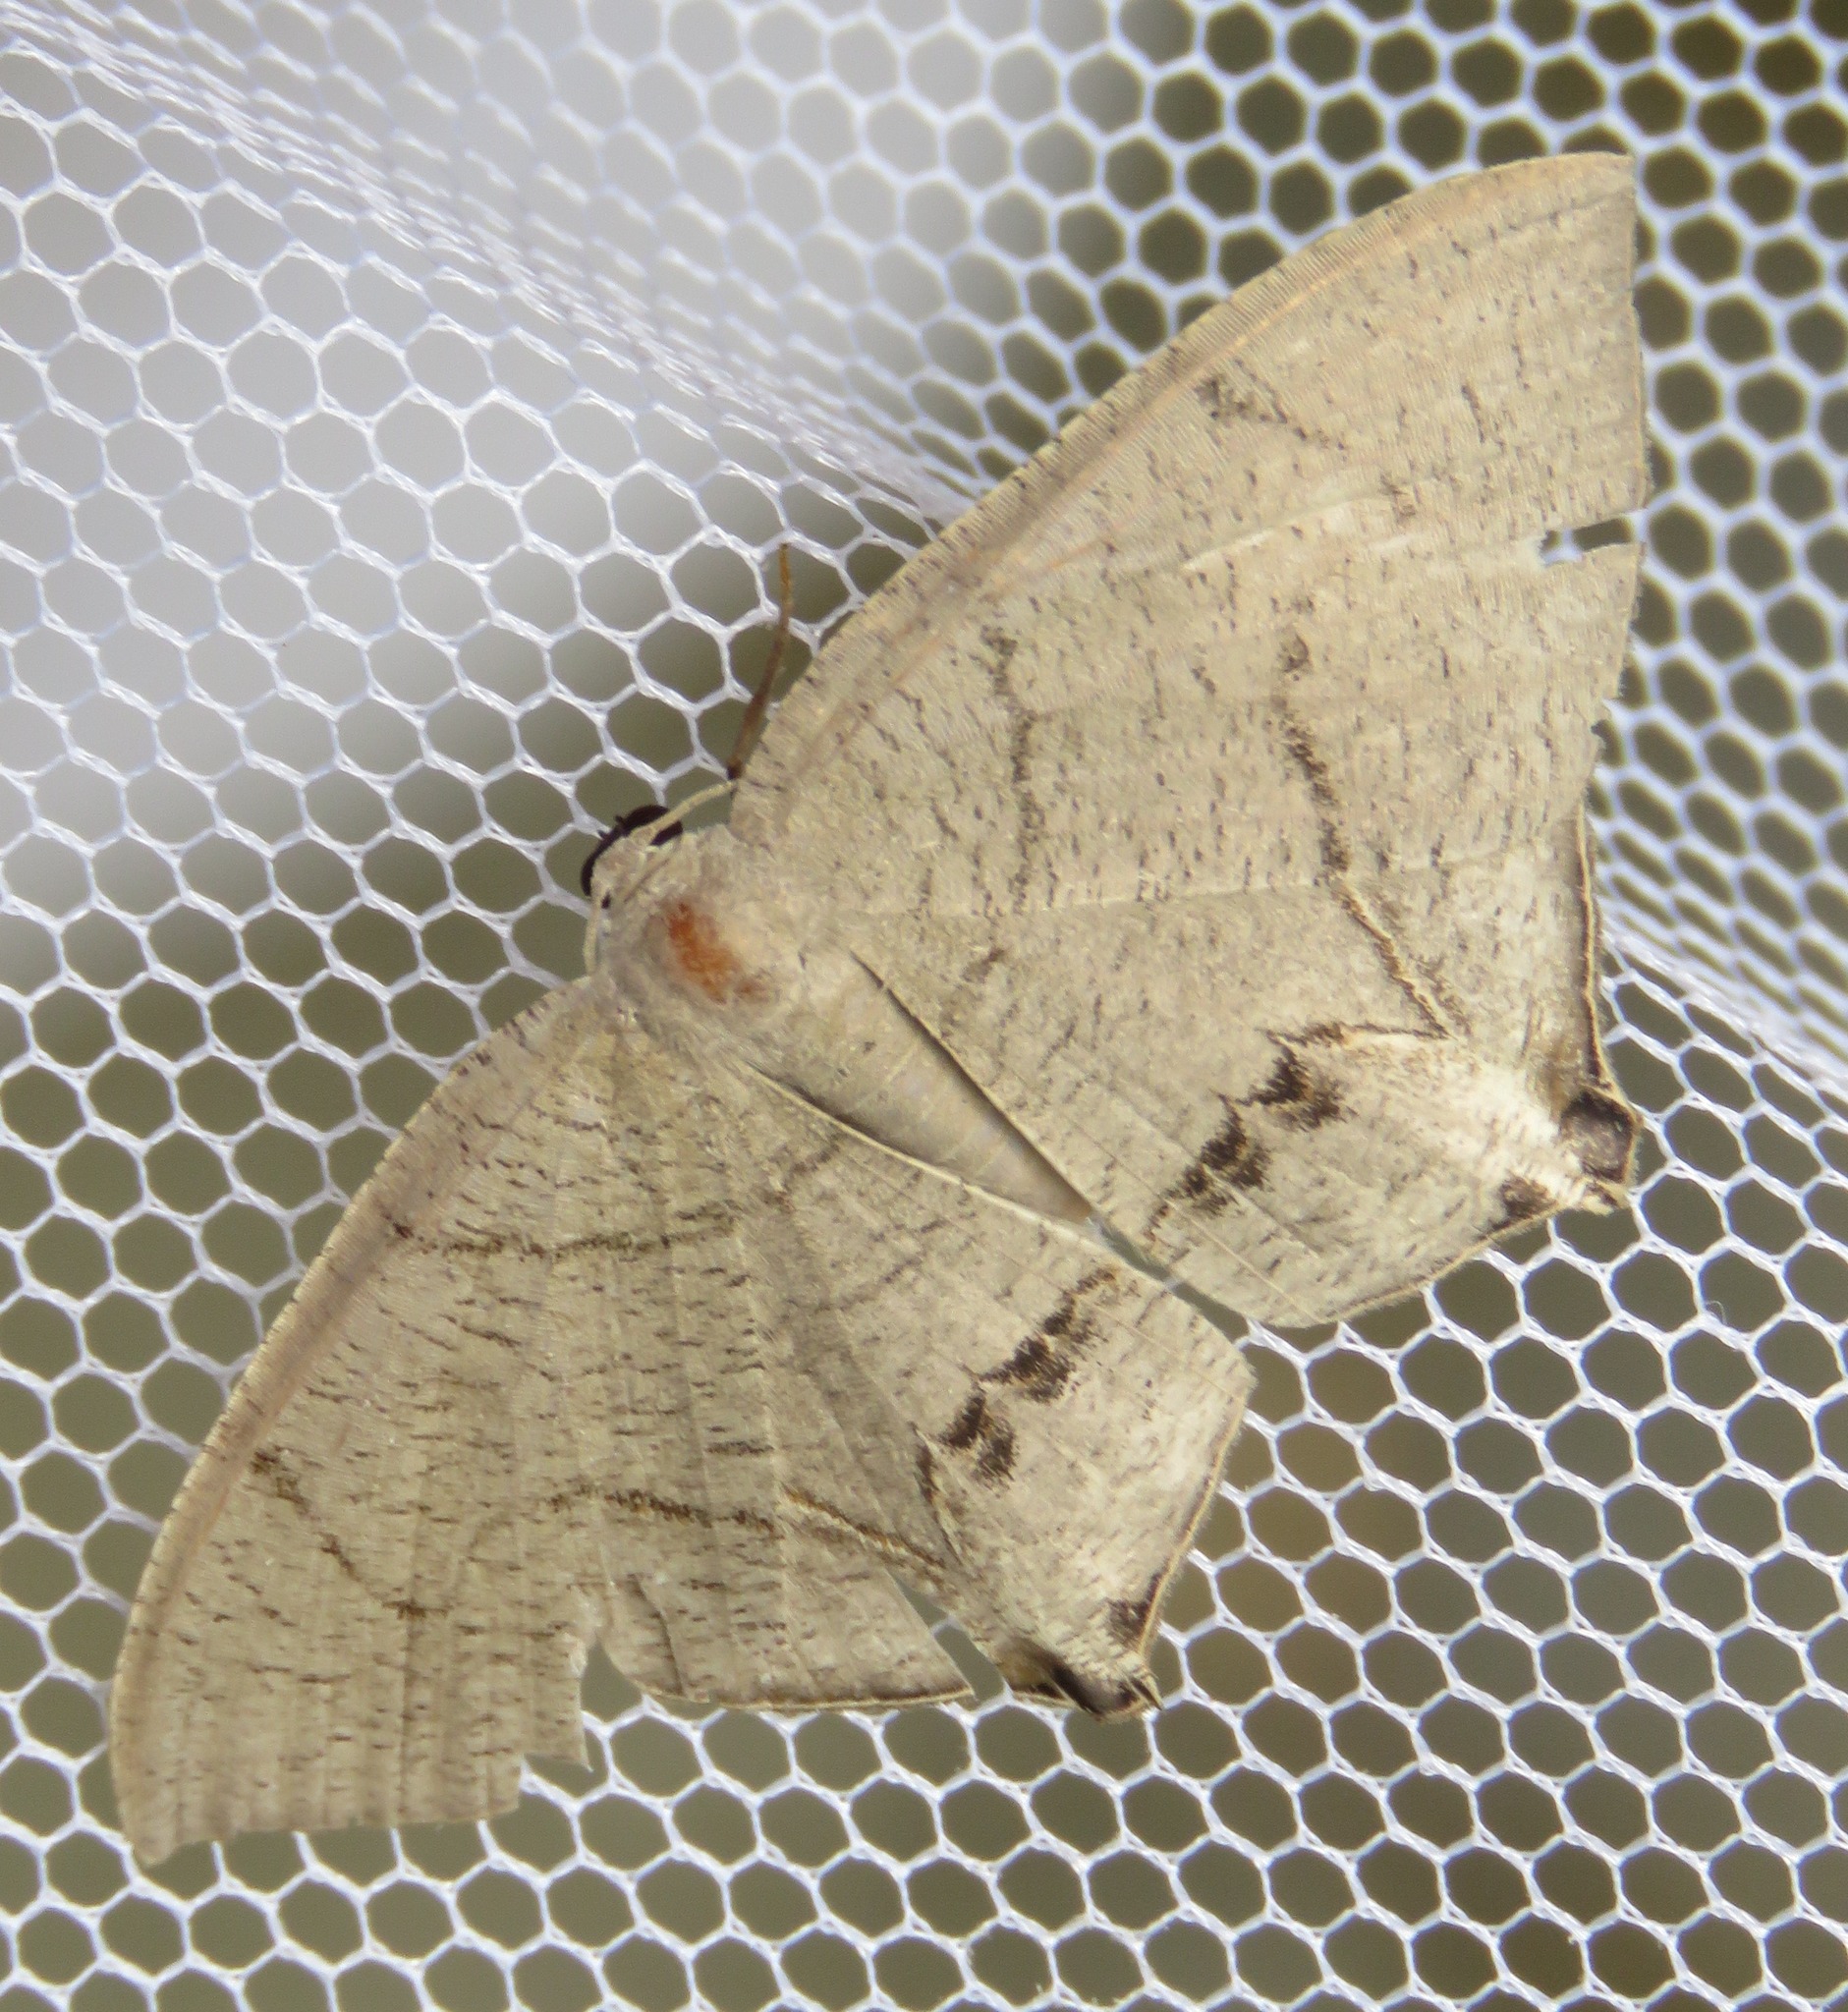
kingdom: Animalia
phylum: Arthropoda
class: Insecta
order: Lepidoptera
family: Uraniidae
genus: Psamathia
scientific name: Psamathia
